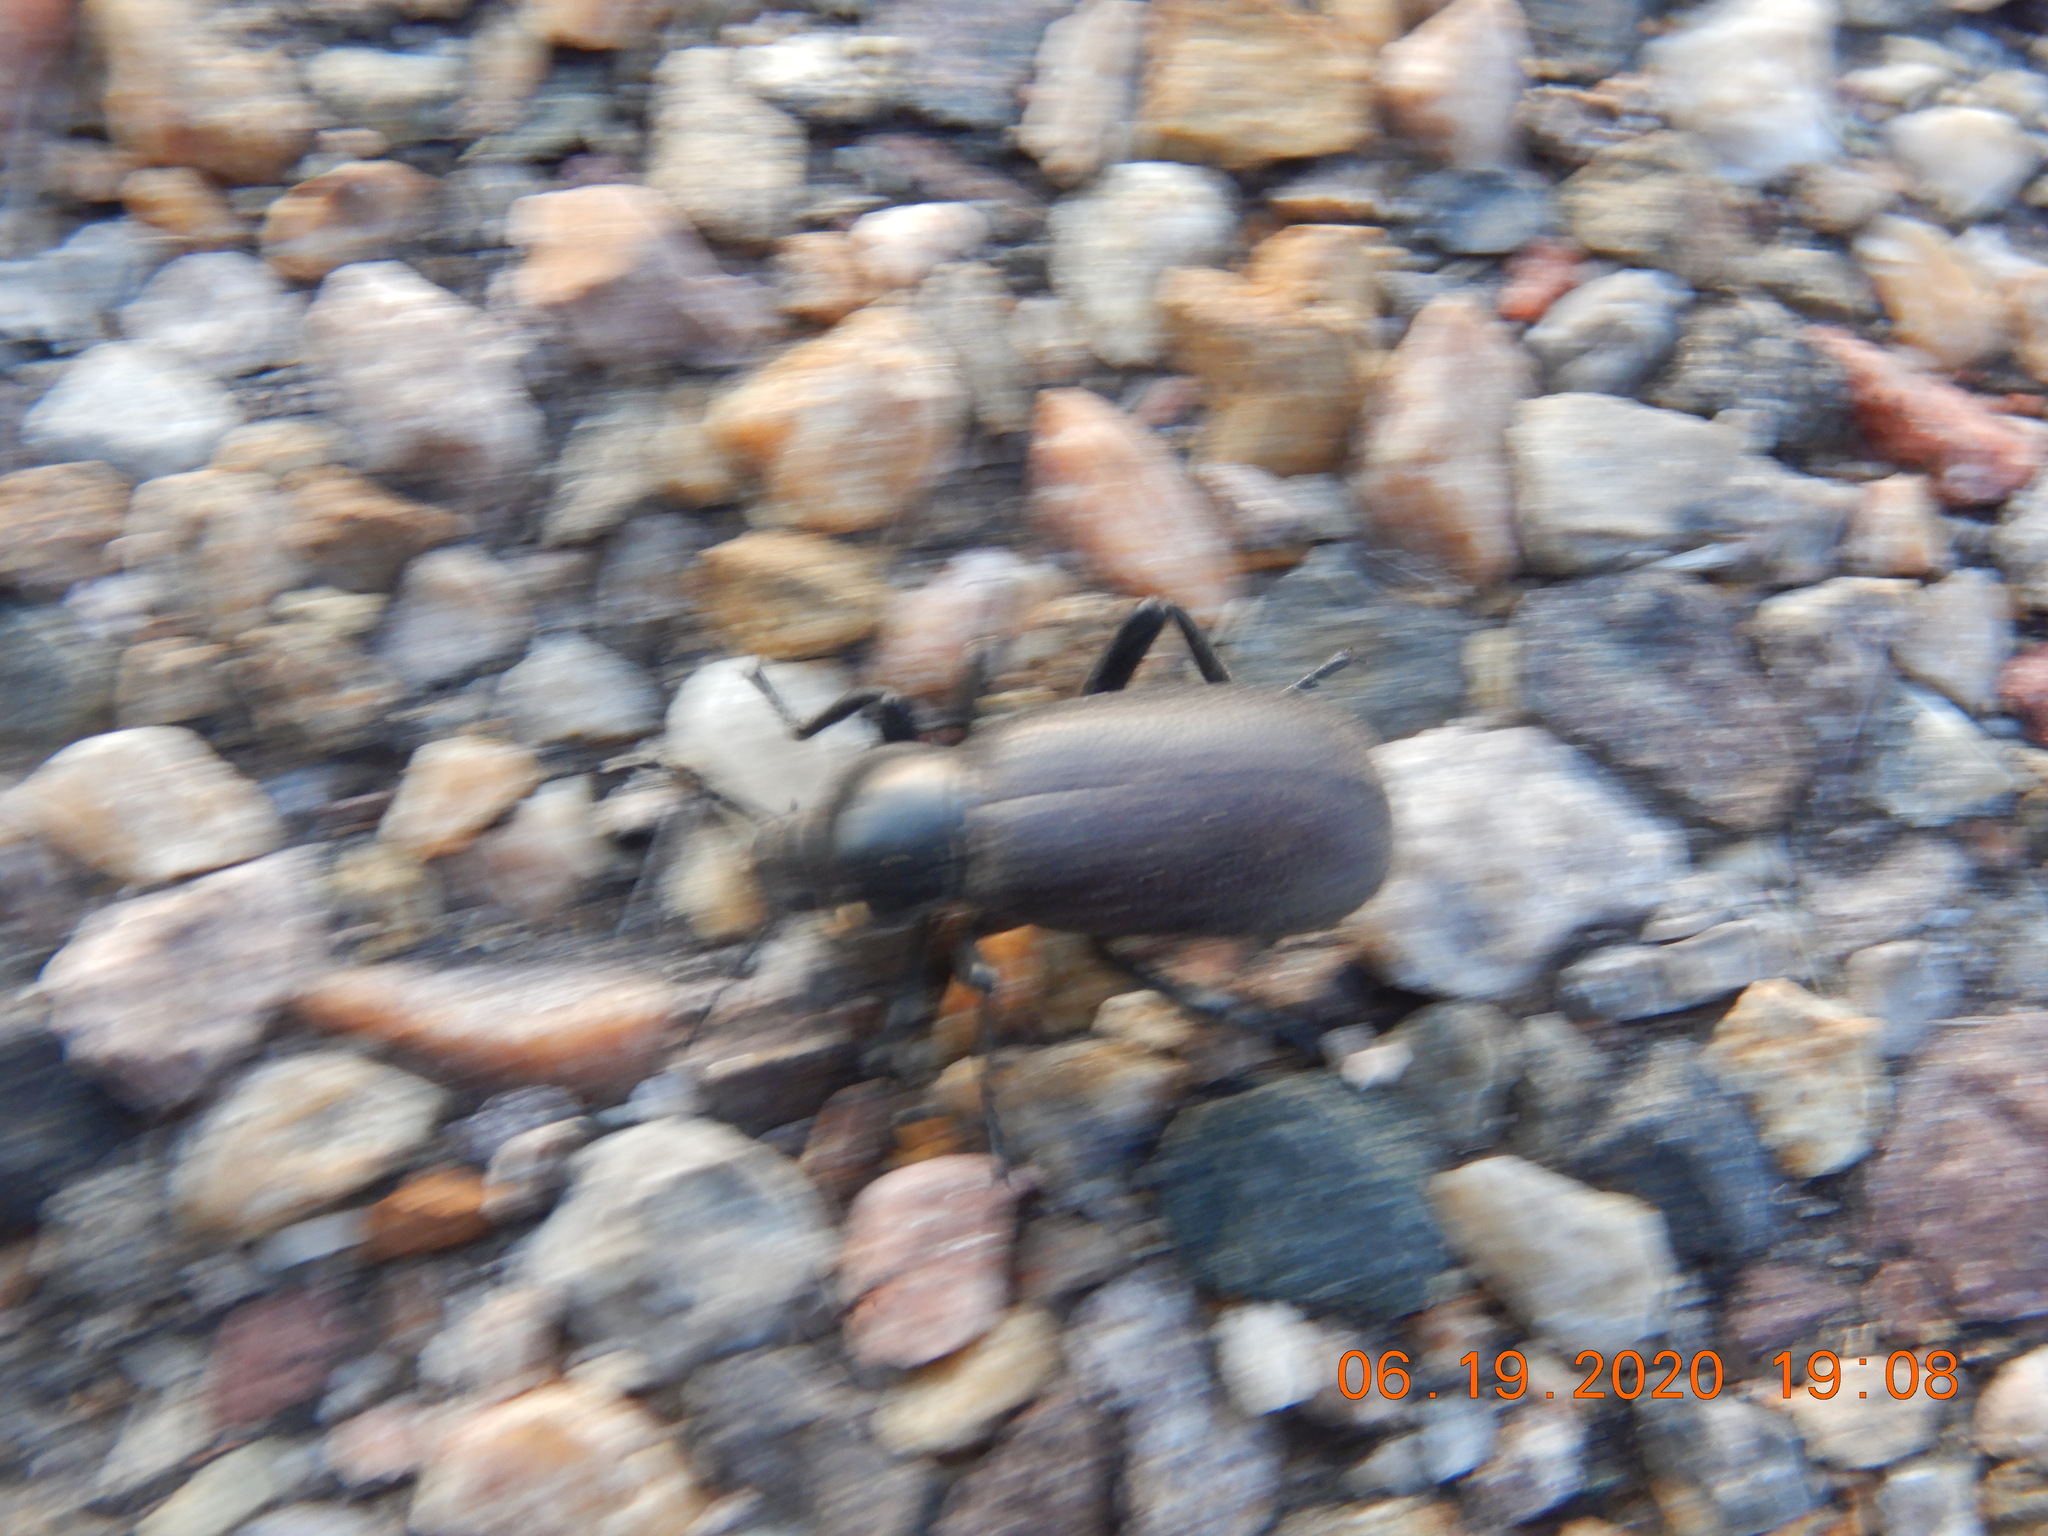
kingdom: Animalia
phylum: Arthropoda
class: Insecta
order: Coleoptera
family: Tenebrionidae
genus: Eleodes
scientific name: Eleodes obscura
